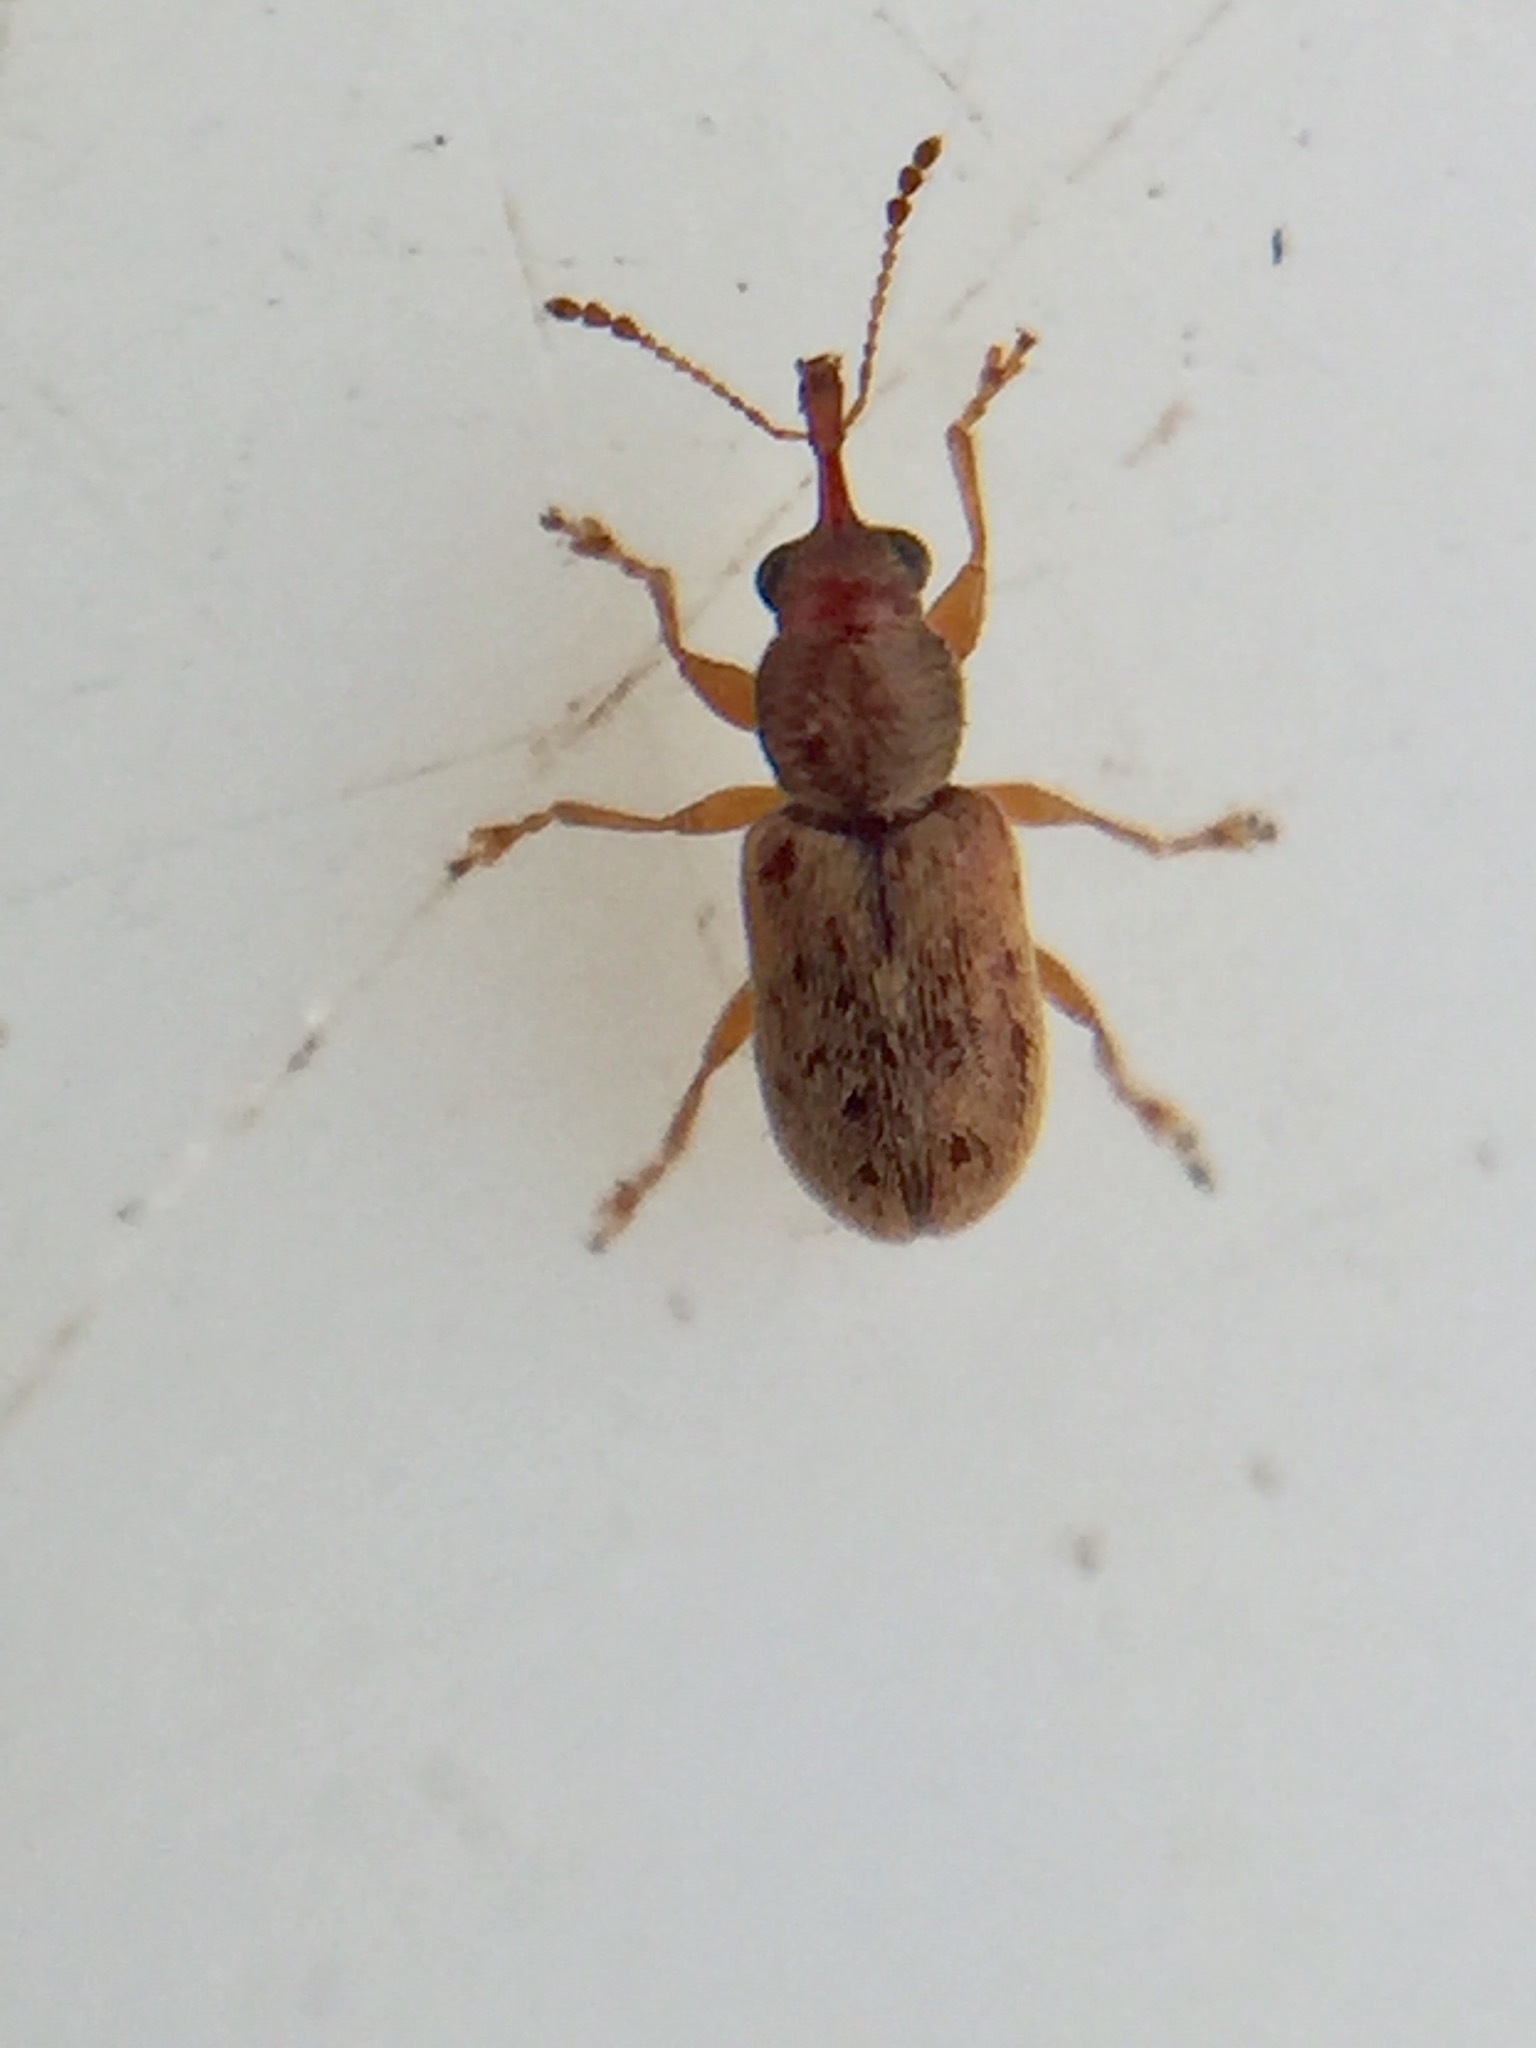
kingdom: Animalia
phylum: Arthropoda
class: Insecta
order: Coleoptera
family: Nemonychidae
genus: Rhinorhynchus
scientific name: Rhinorhynchus rufulus
